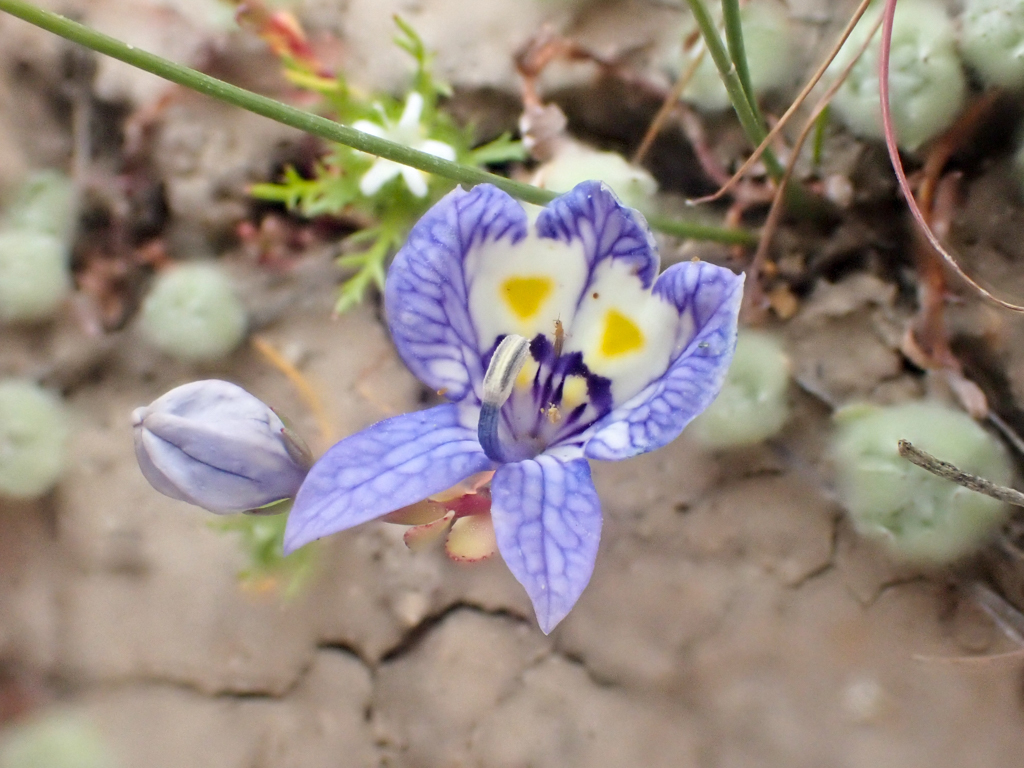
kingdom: Plantae
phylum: Tracheophyta
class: Magnoliopsida
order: Asterales
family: Campanulaceae
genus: Downingia
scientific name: Downingia insignis
